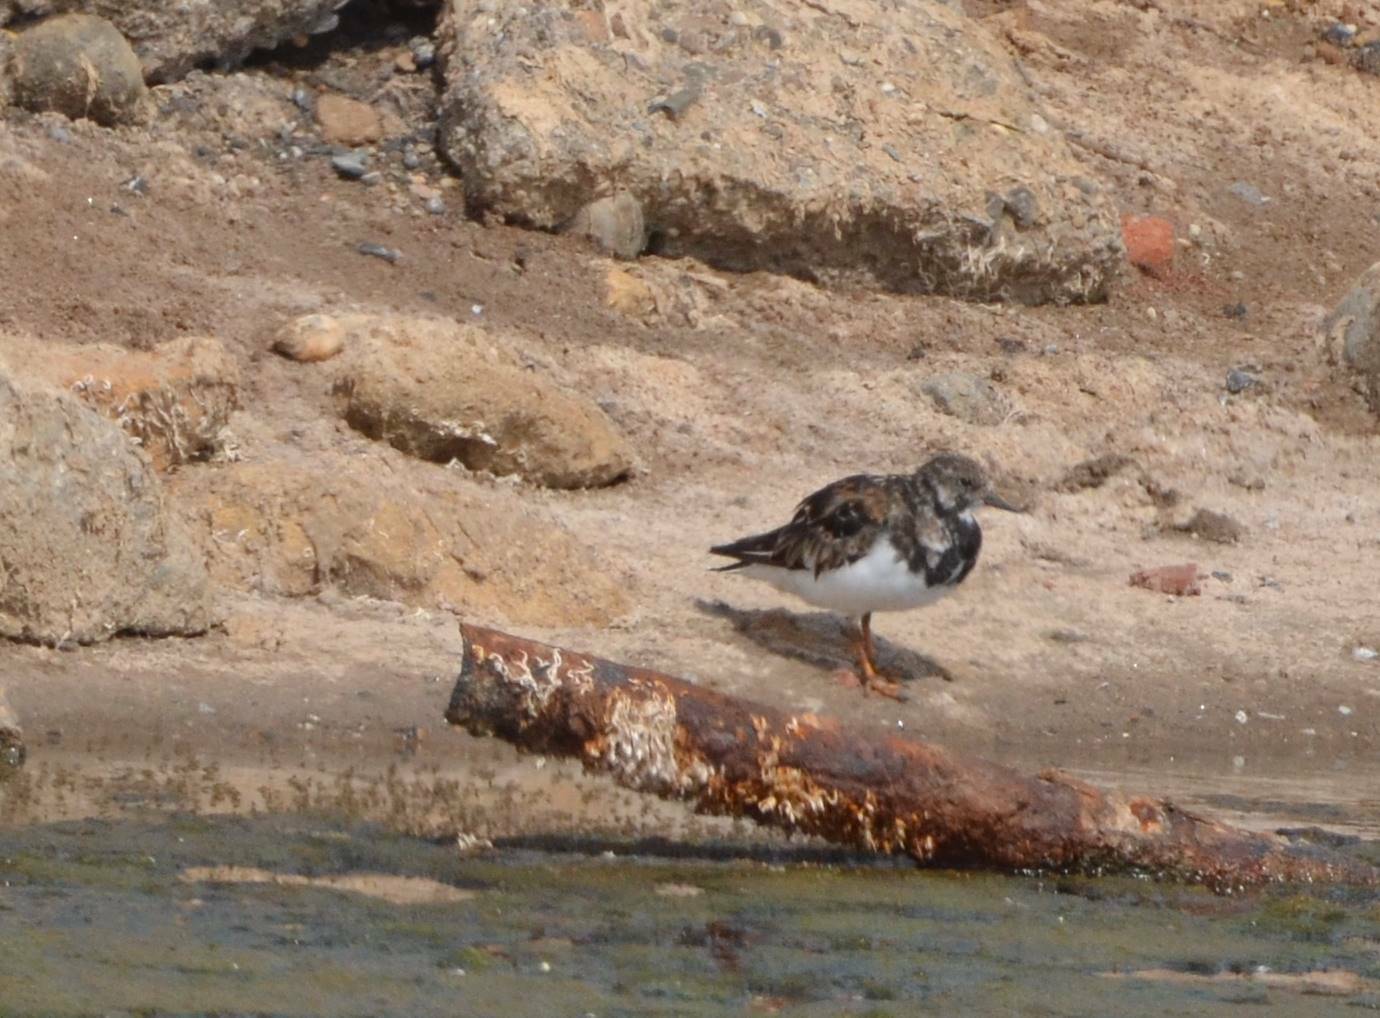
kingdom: Animalia
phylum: Chordata
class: Aves
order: Charadriiformes
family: Scolopacidae
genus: Arenaria
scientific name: Arenaria interpres
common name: Ruddy turnstone
